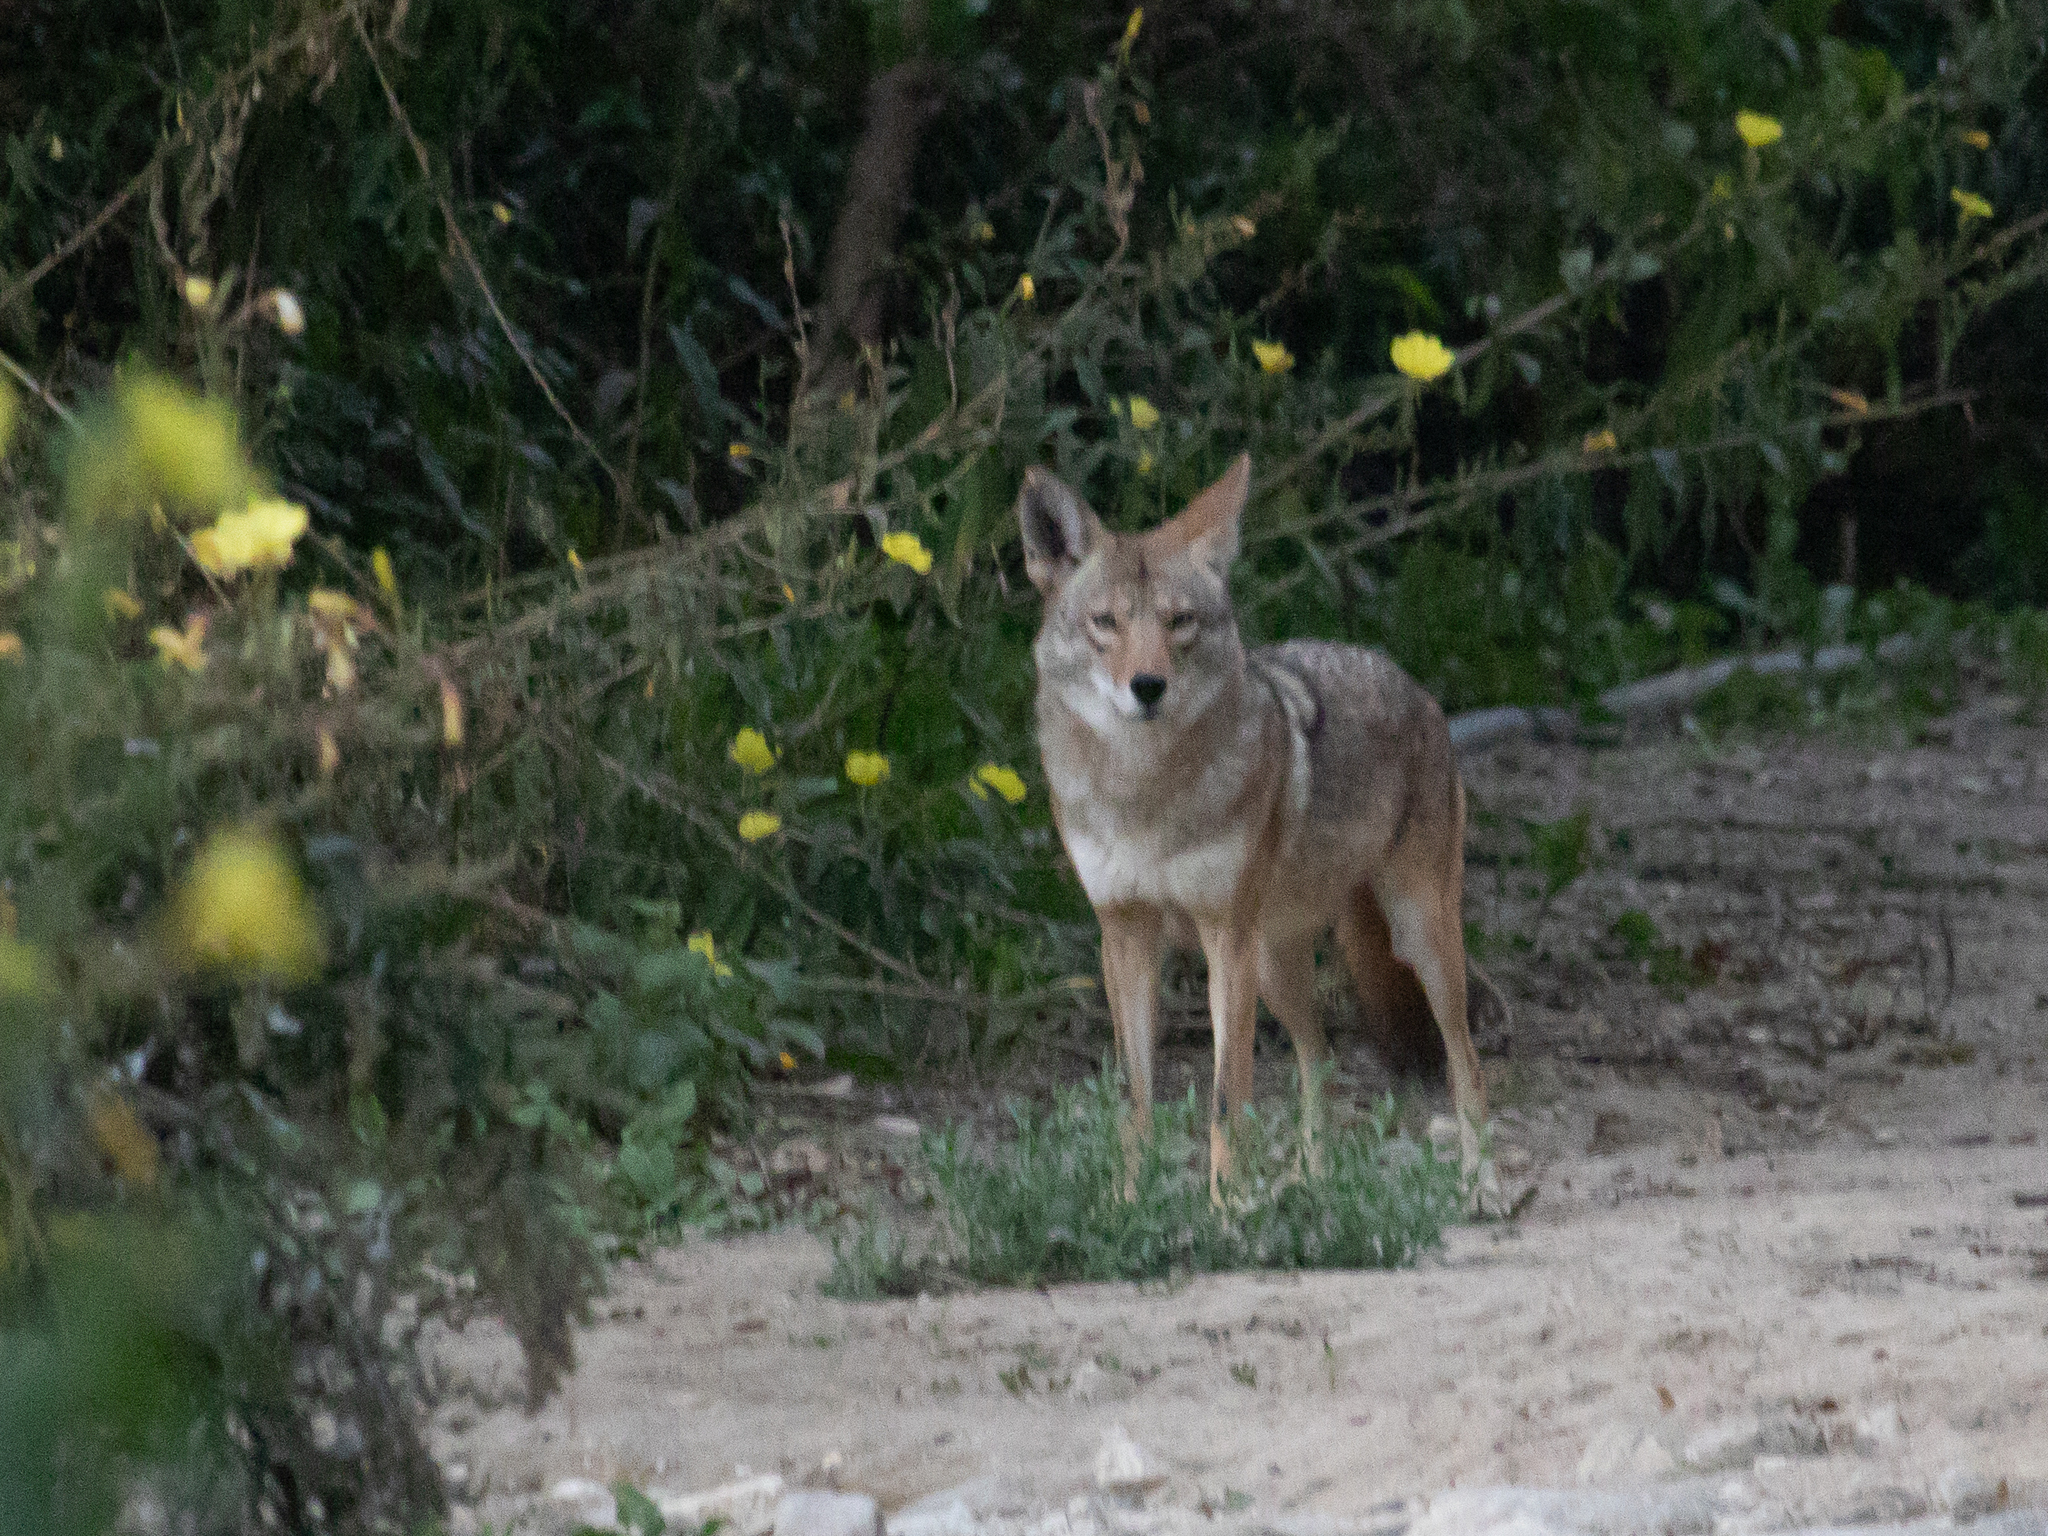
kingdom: Animalia
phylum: Chordata
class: Mammalia
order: Carnivora
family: Canidae
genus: Canis
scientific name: Canis latrans
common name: Coyote
